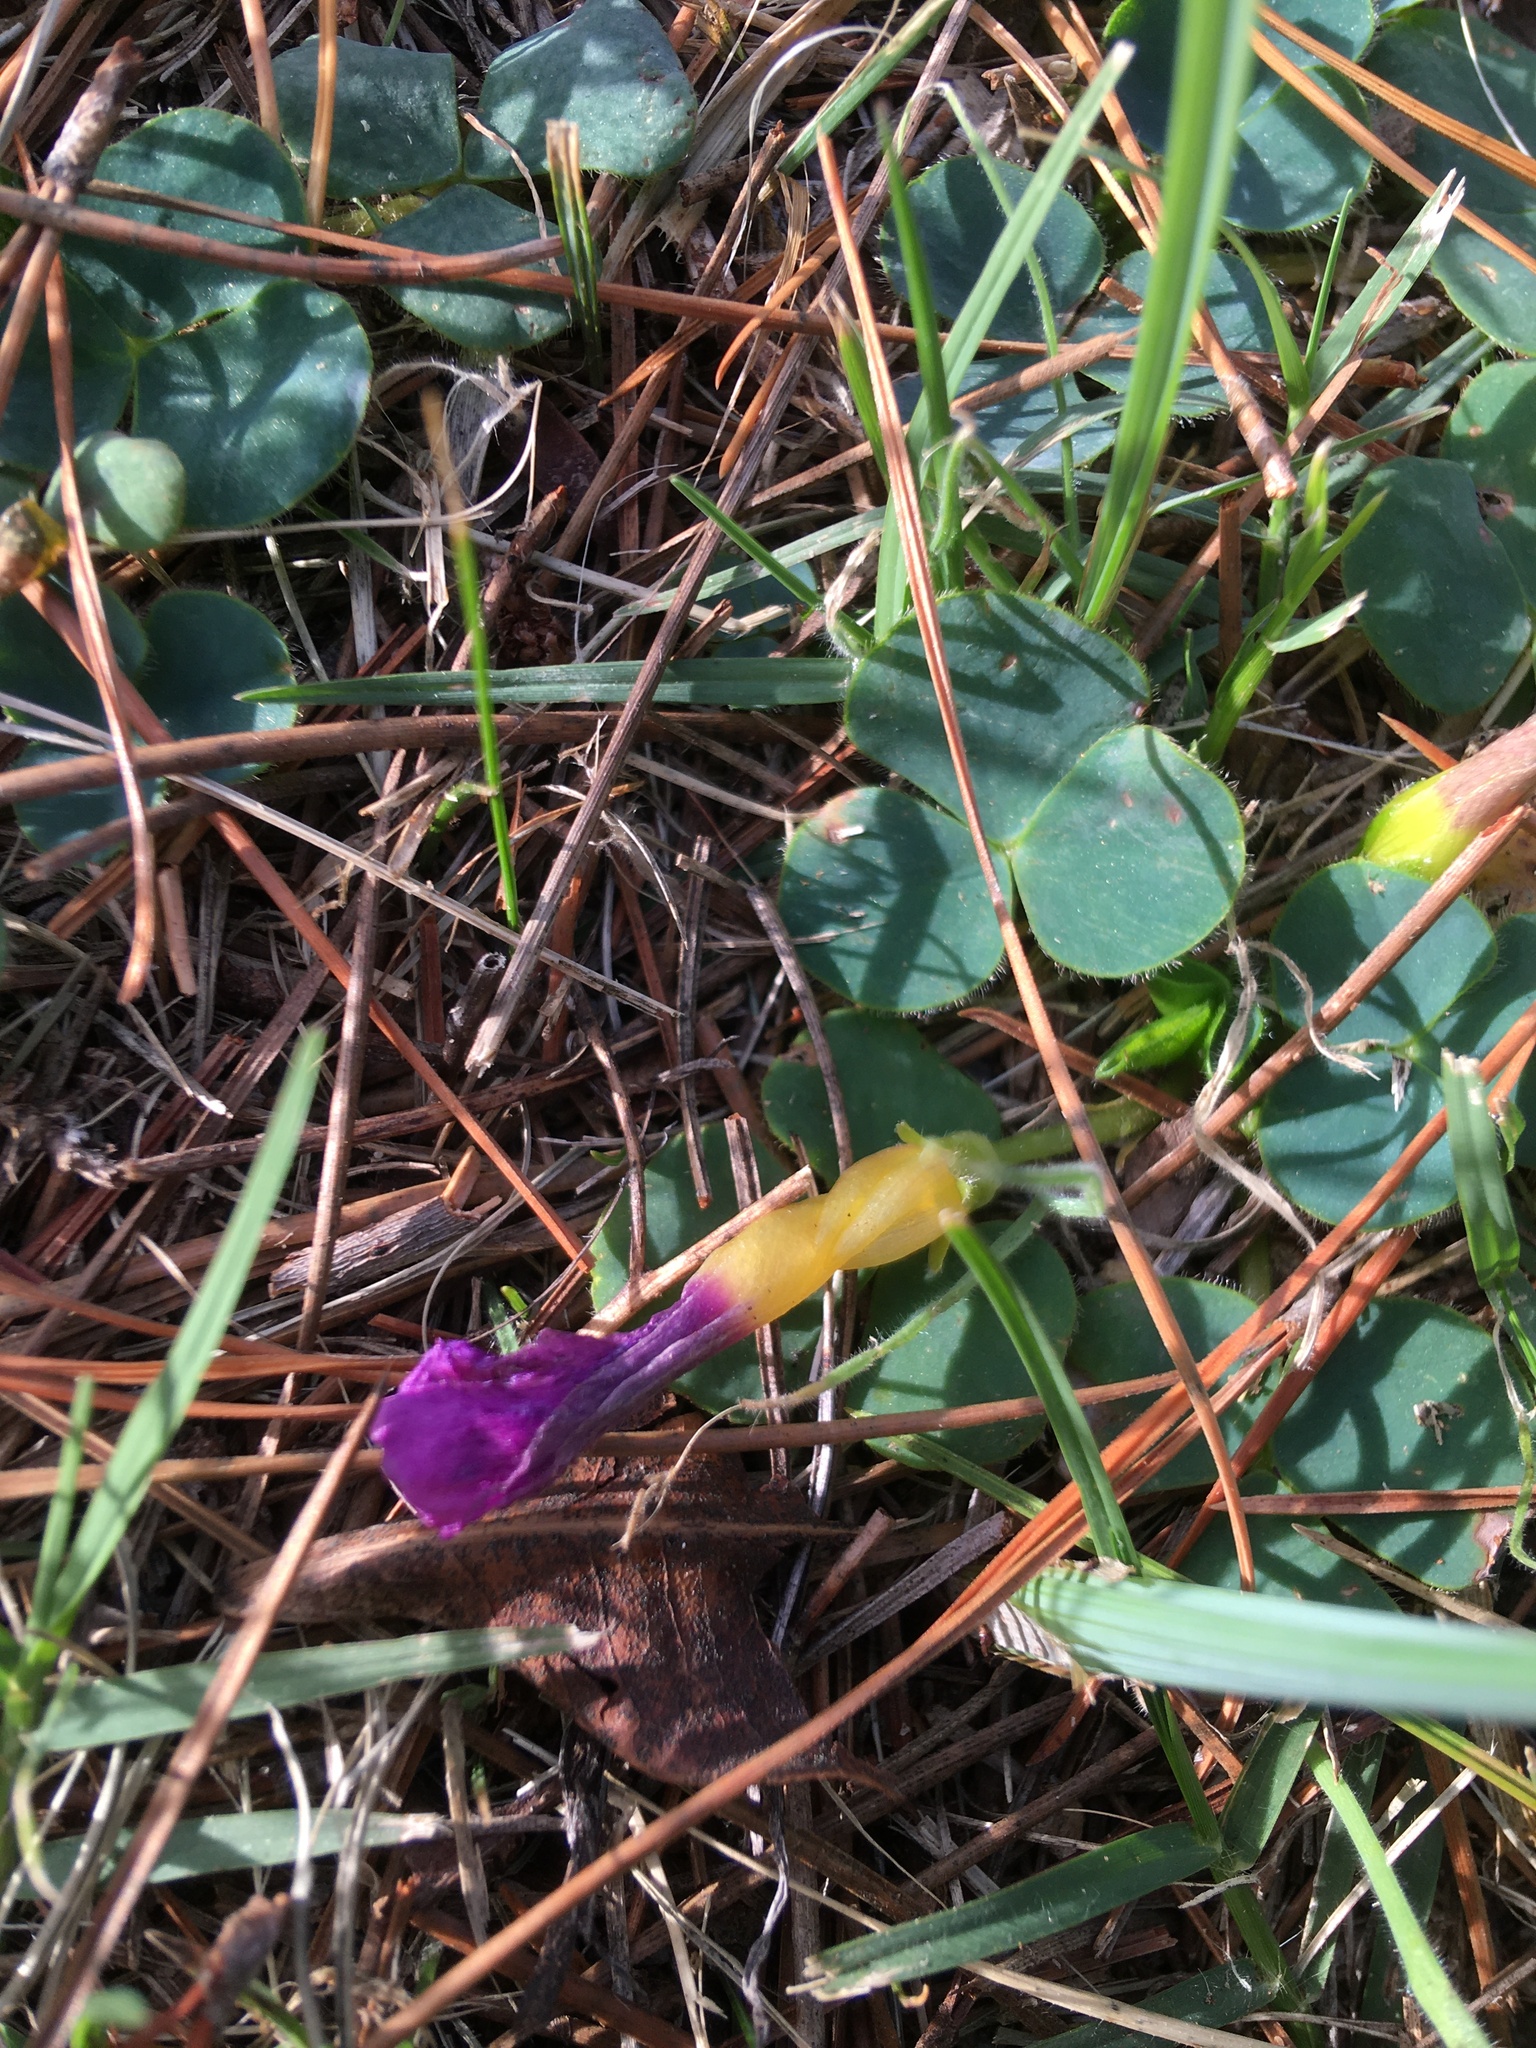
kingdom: Plantae
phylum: Tracheophyta
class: Magnoliopsida
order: Oxalidales
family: Oxalidaceae
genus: Oxalis
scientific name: Oxalis purpurea
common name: Purple woodsorrel
